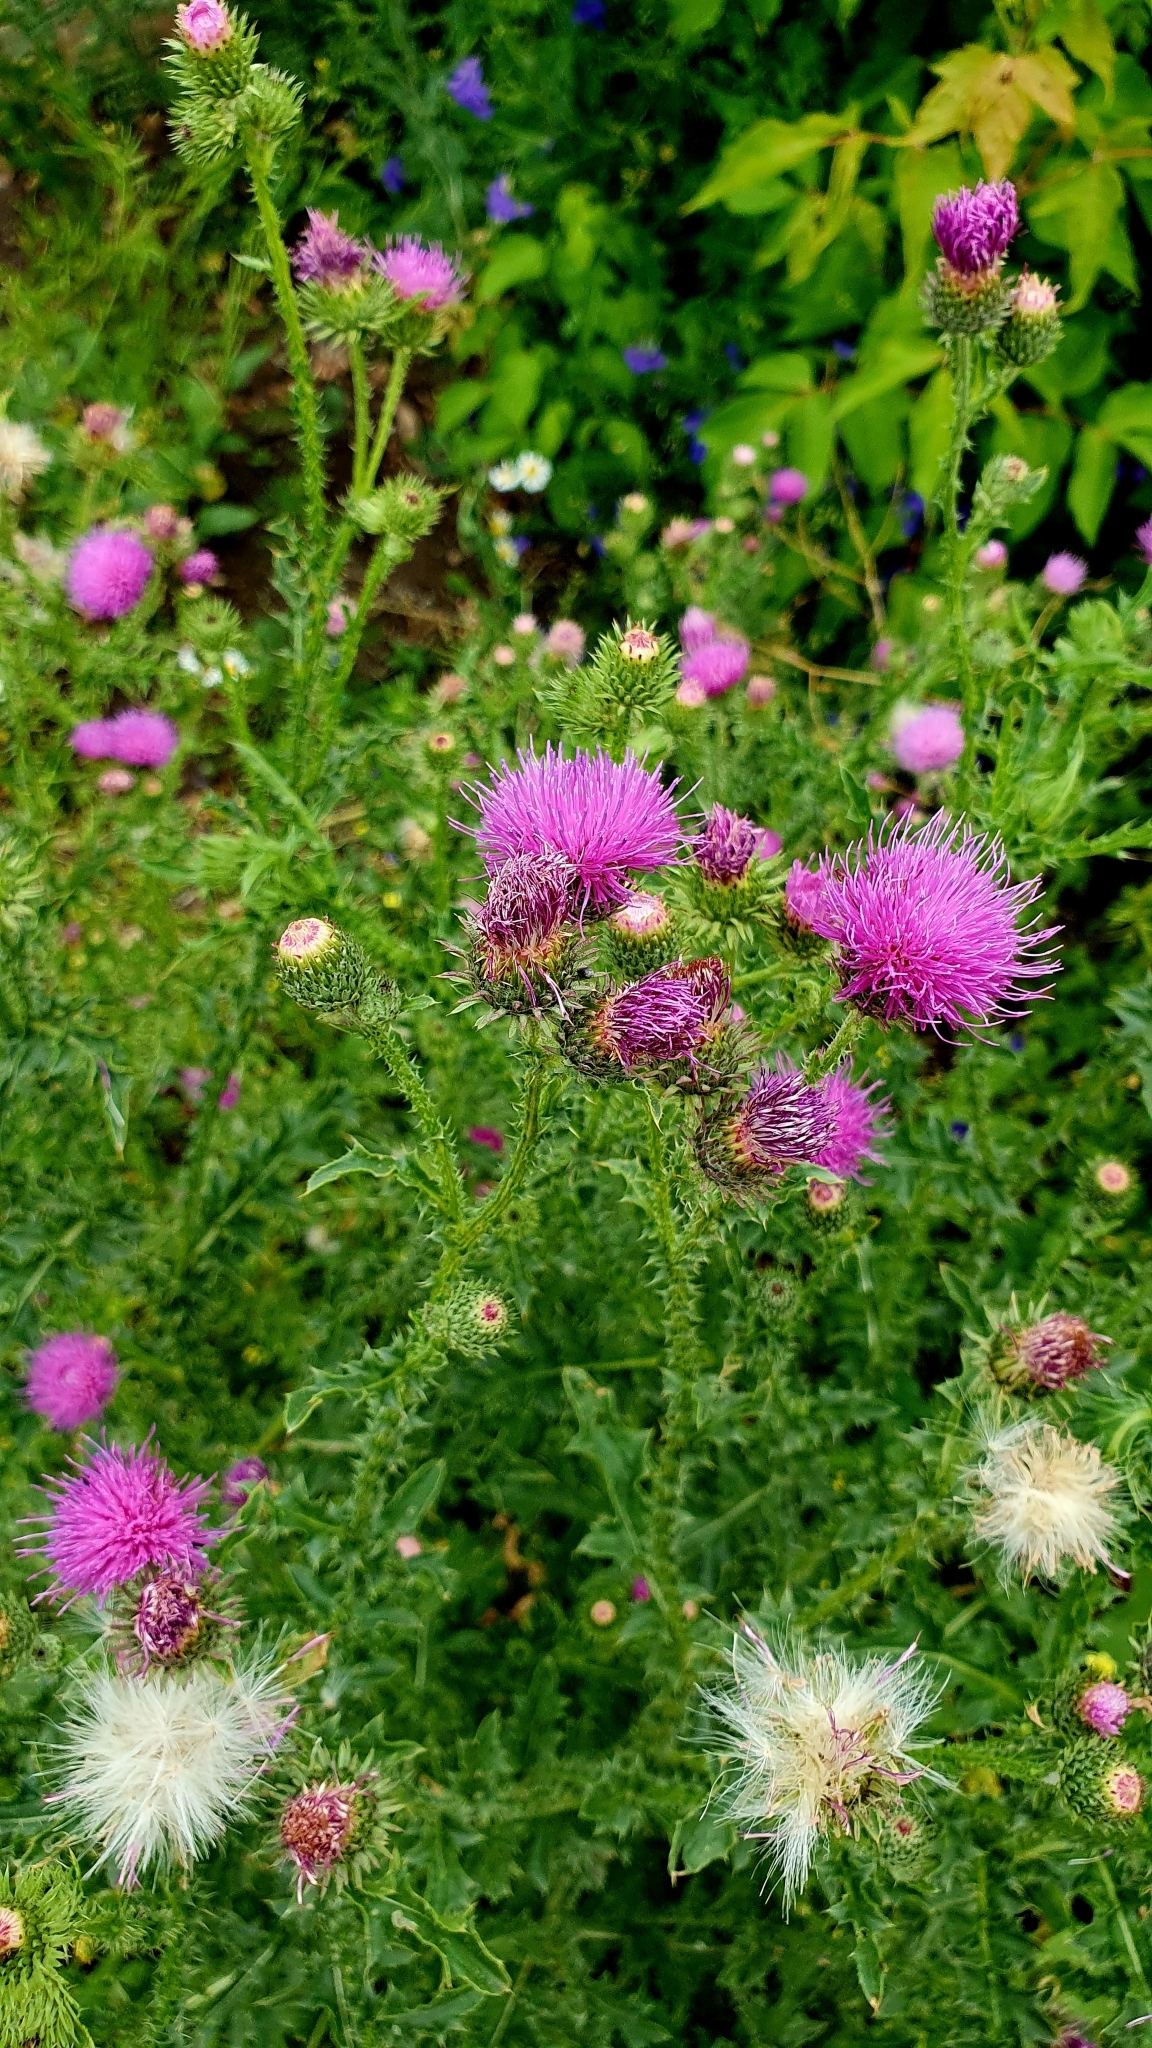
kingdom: Plantae
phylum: Tracheophyta
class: Magnoliopsida
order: Asterales
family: Asteraceae
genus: Carduus
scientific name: Carduus acanthoides
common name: Plumeless thistle
